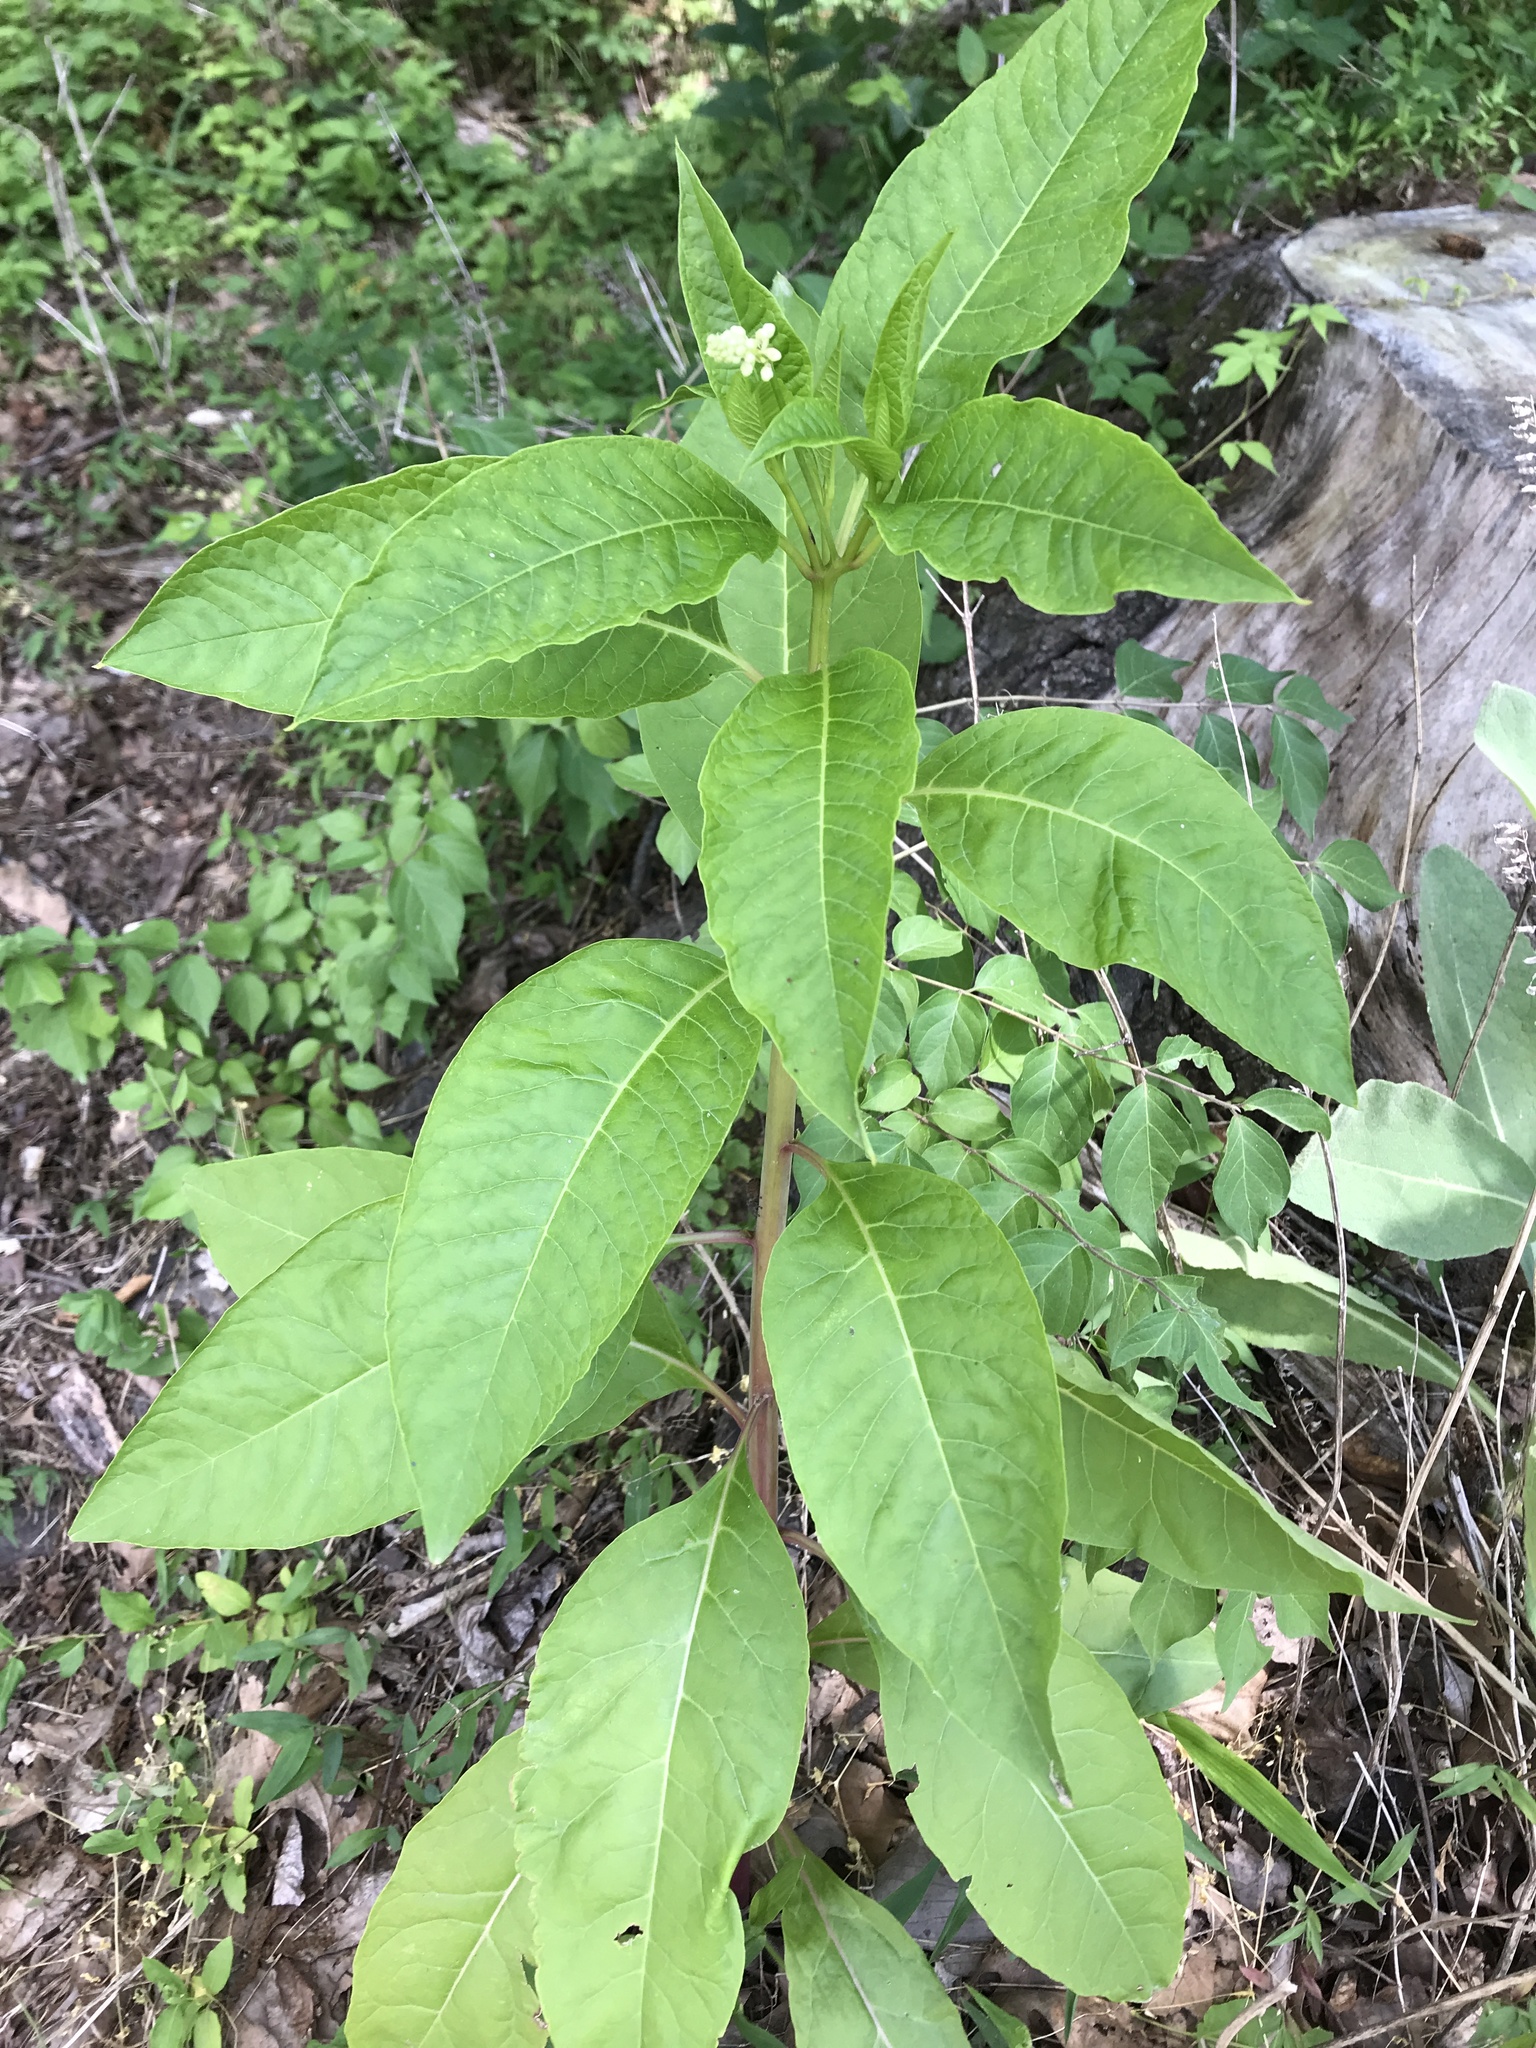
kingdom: Plantae
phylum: Tracheophyta
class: Magnoliopsida
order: Caryophyllales
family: Phytolaccaceae
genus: Phytolacca
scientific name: Phytolacca americana
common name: American pokeweed
